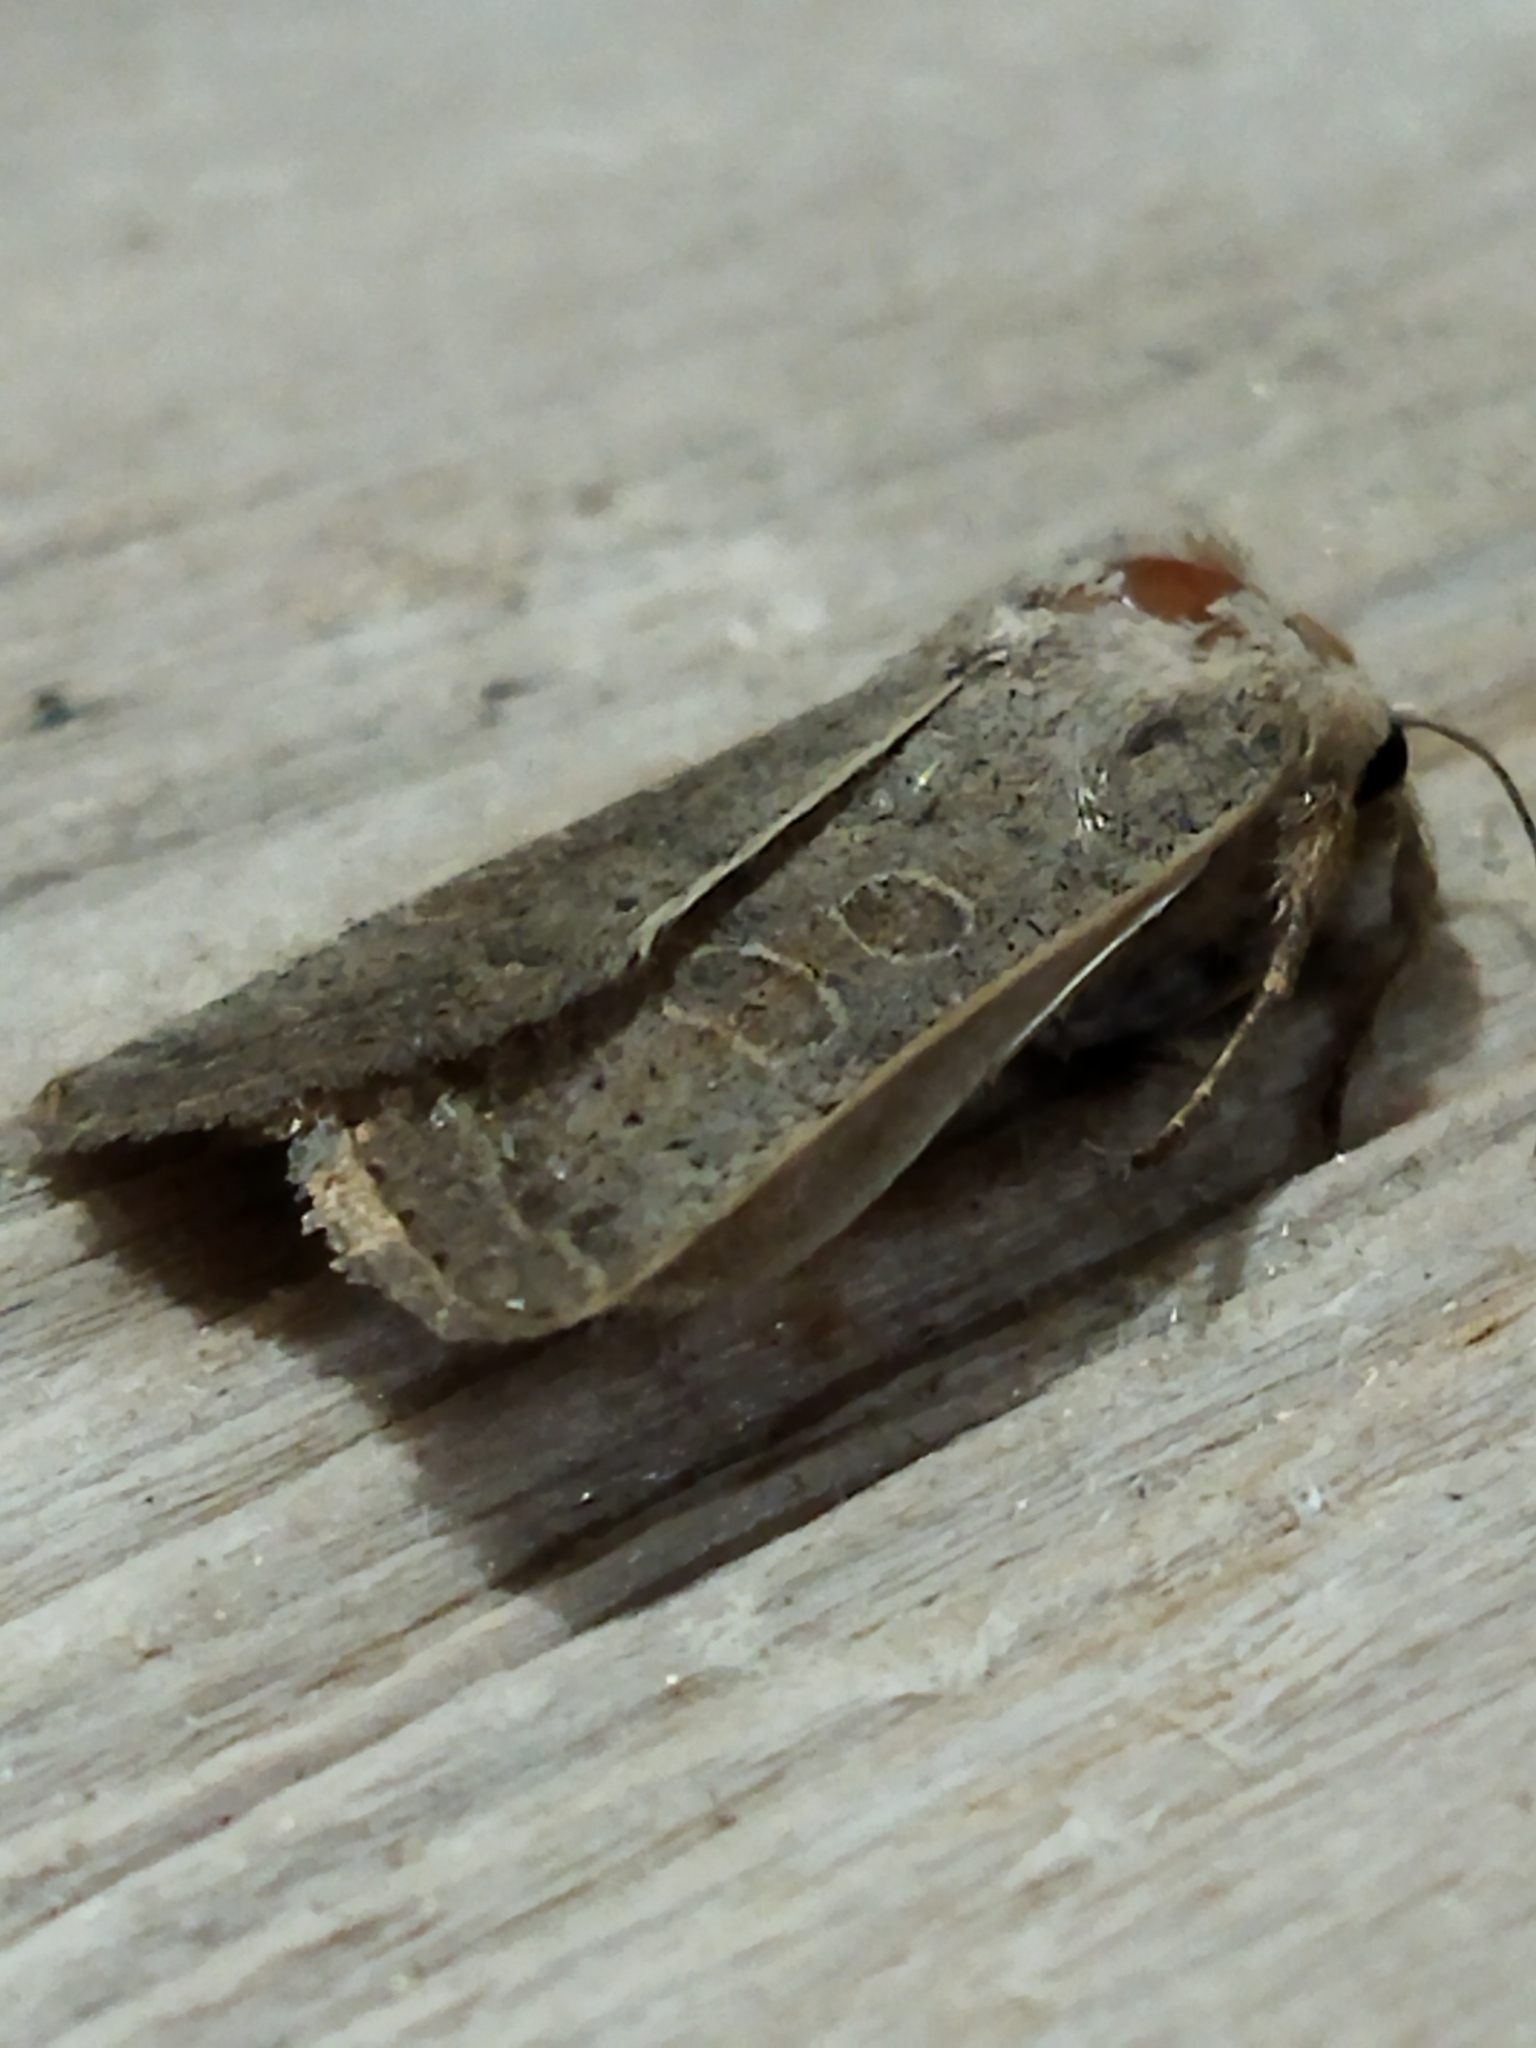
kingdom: Animalia
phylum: Arthropoda
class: Insecta
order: Lepidoptera
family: Noctuidae
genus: Hoplodrina
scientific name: Hoplodrina ambigua
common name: Vine's rustic
